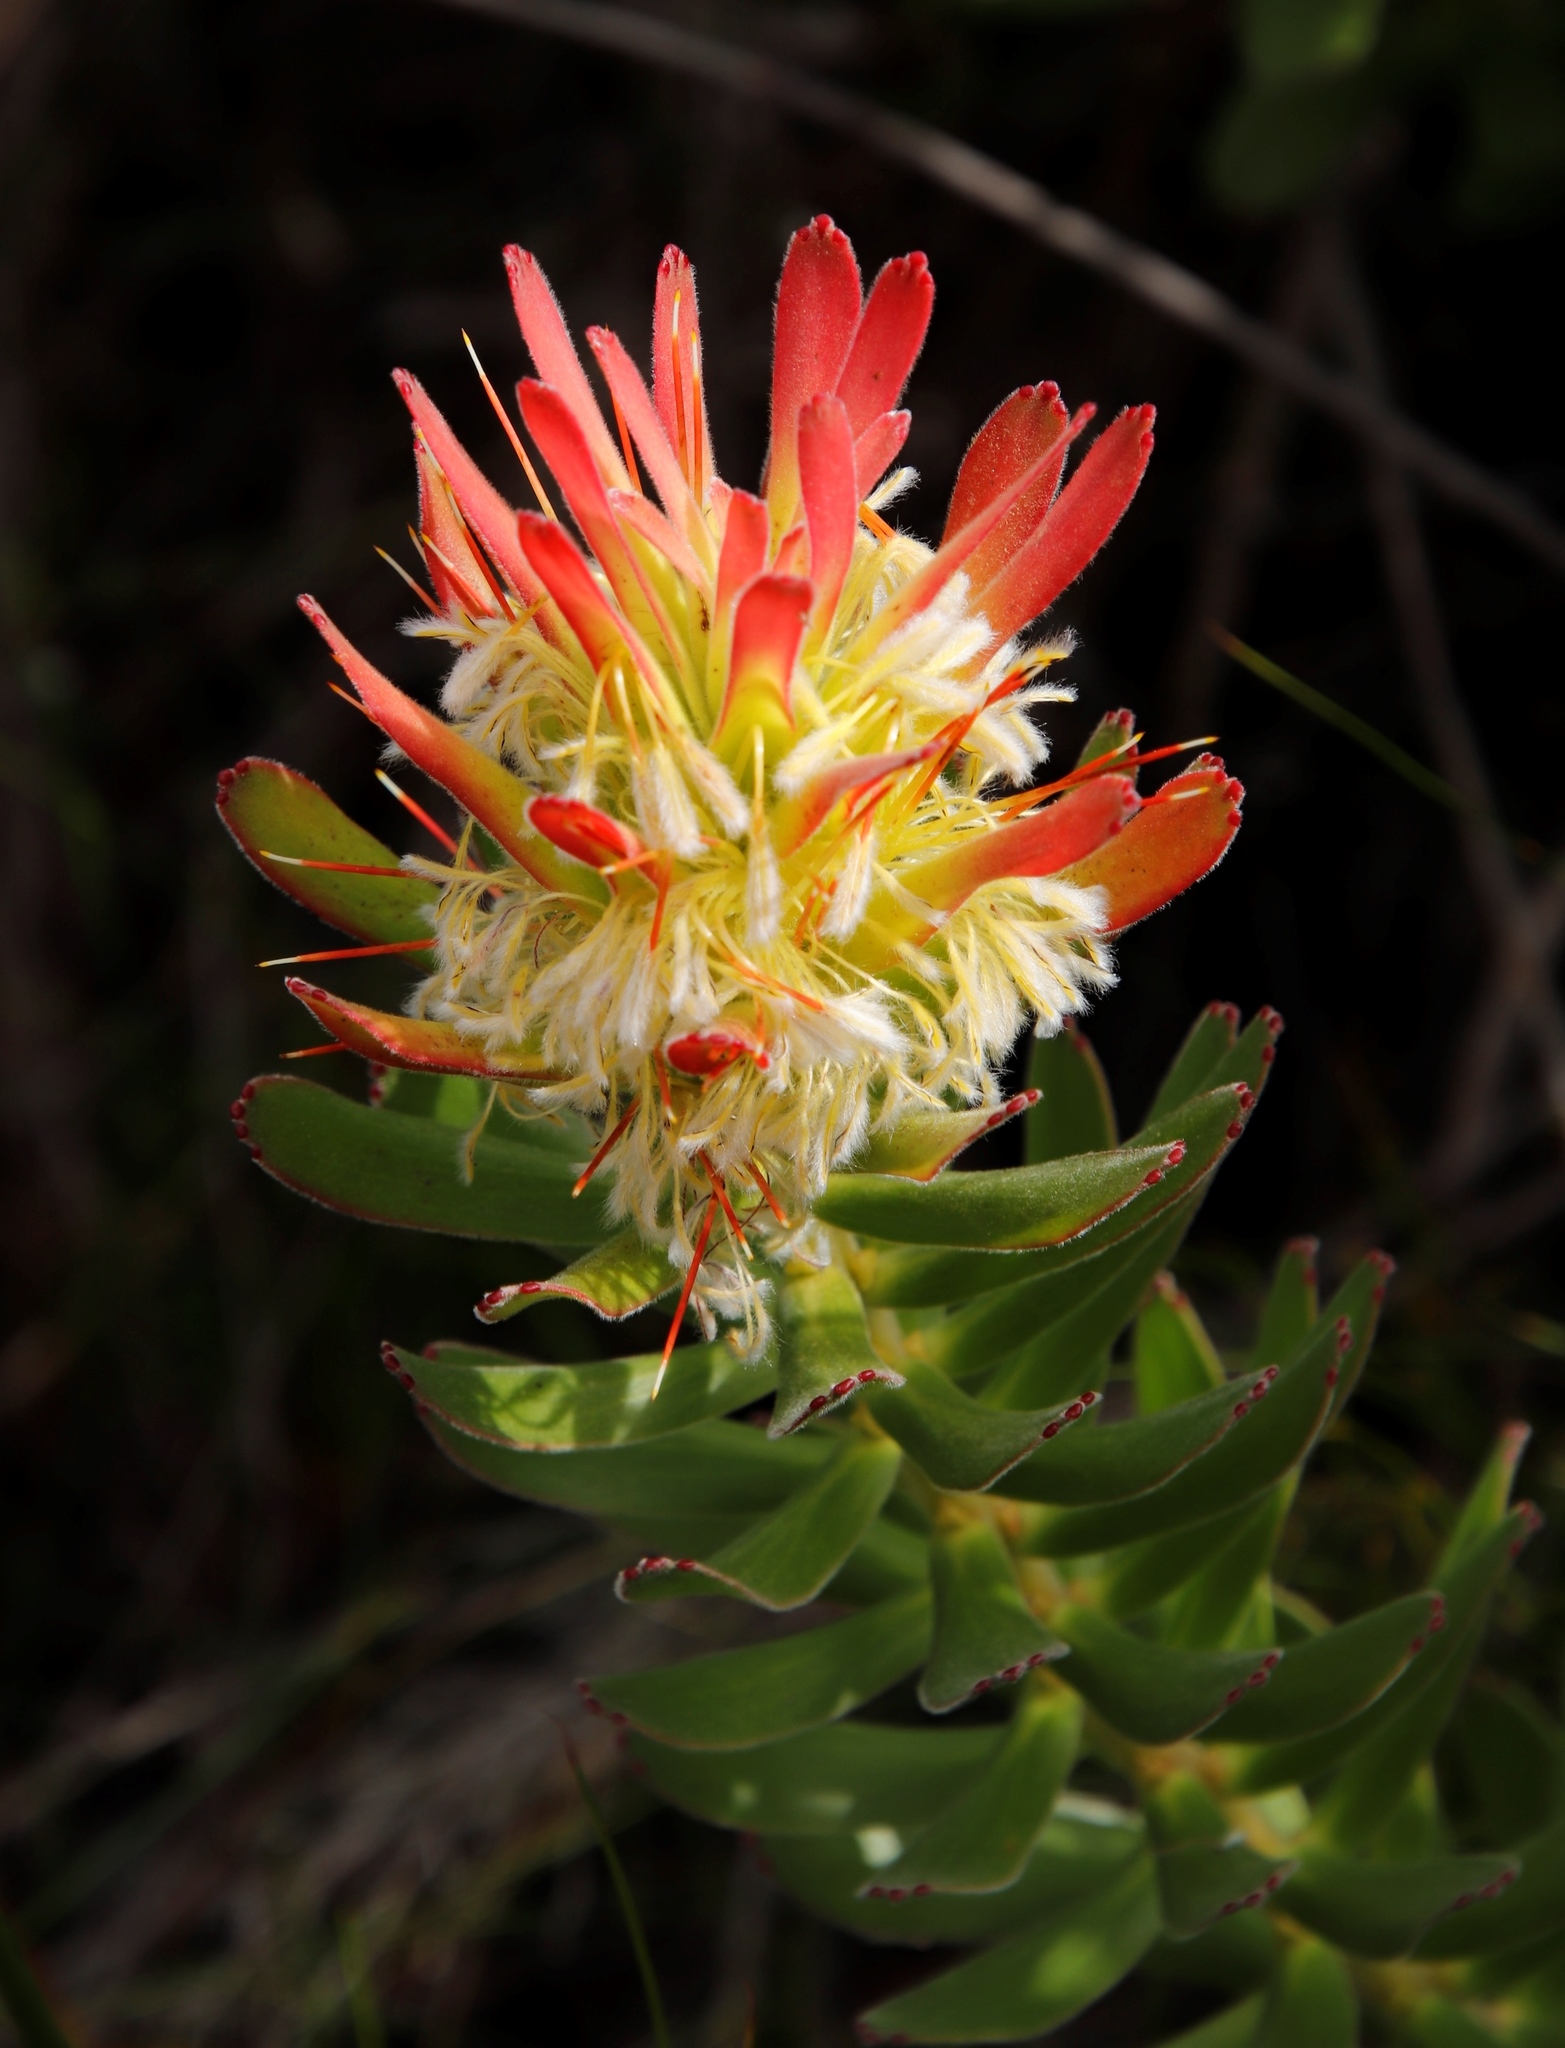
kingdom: Plantae
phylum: Tracheophyta
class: Magnoliopsida
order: Proteales
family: Proteaceae
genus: Mimetes
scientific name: Mimetes cucullatus
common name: Common pagoda
